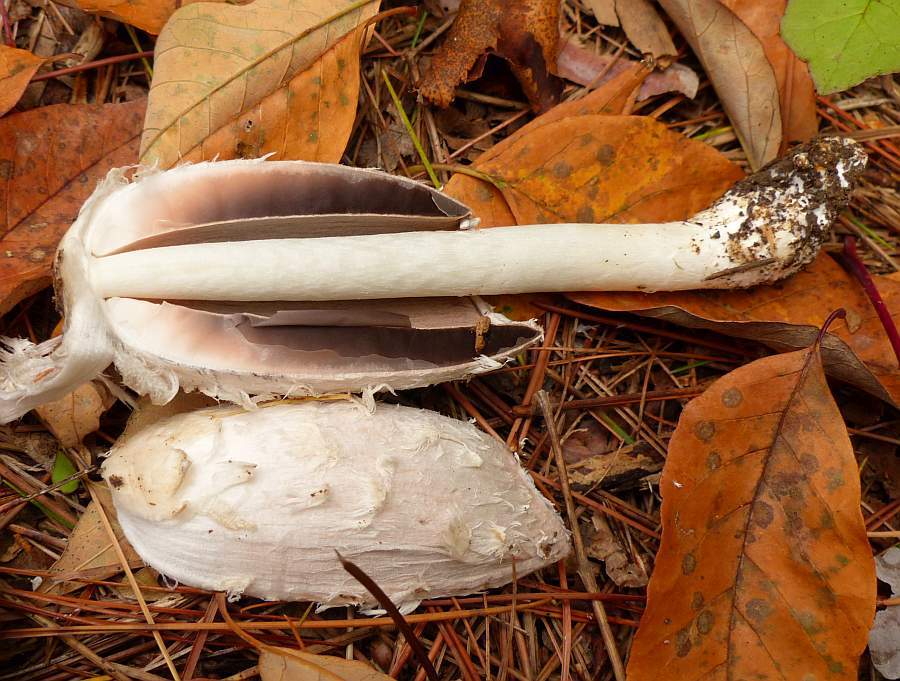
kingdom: Fungi
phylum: Basidiomycota
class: Agaricomycetes
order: Agaricales
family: Agaricaceae
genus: Coprinus
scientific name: Coprinus comatus
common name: Lawyer's wig
